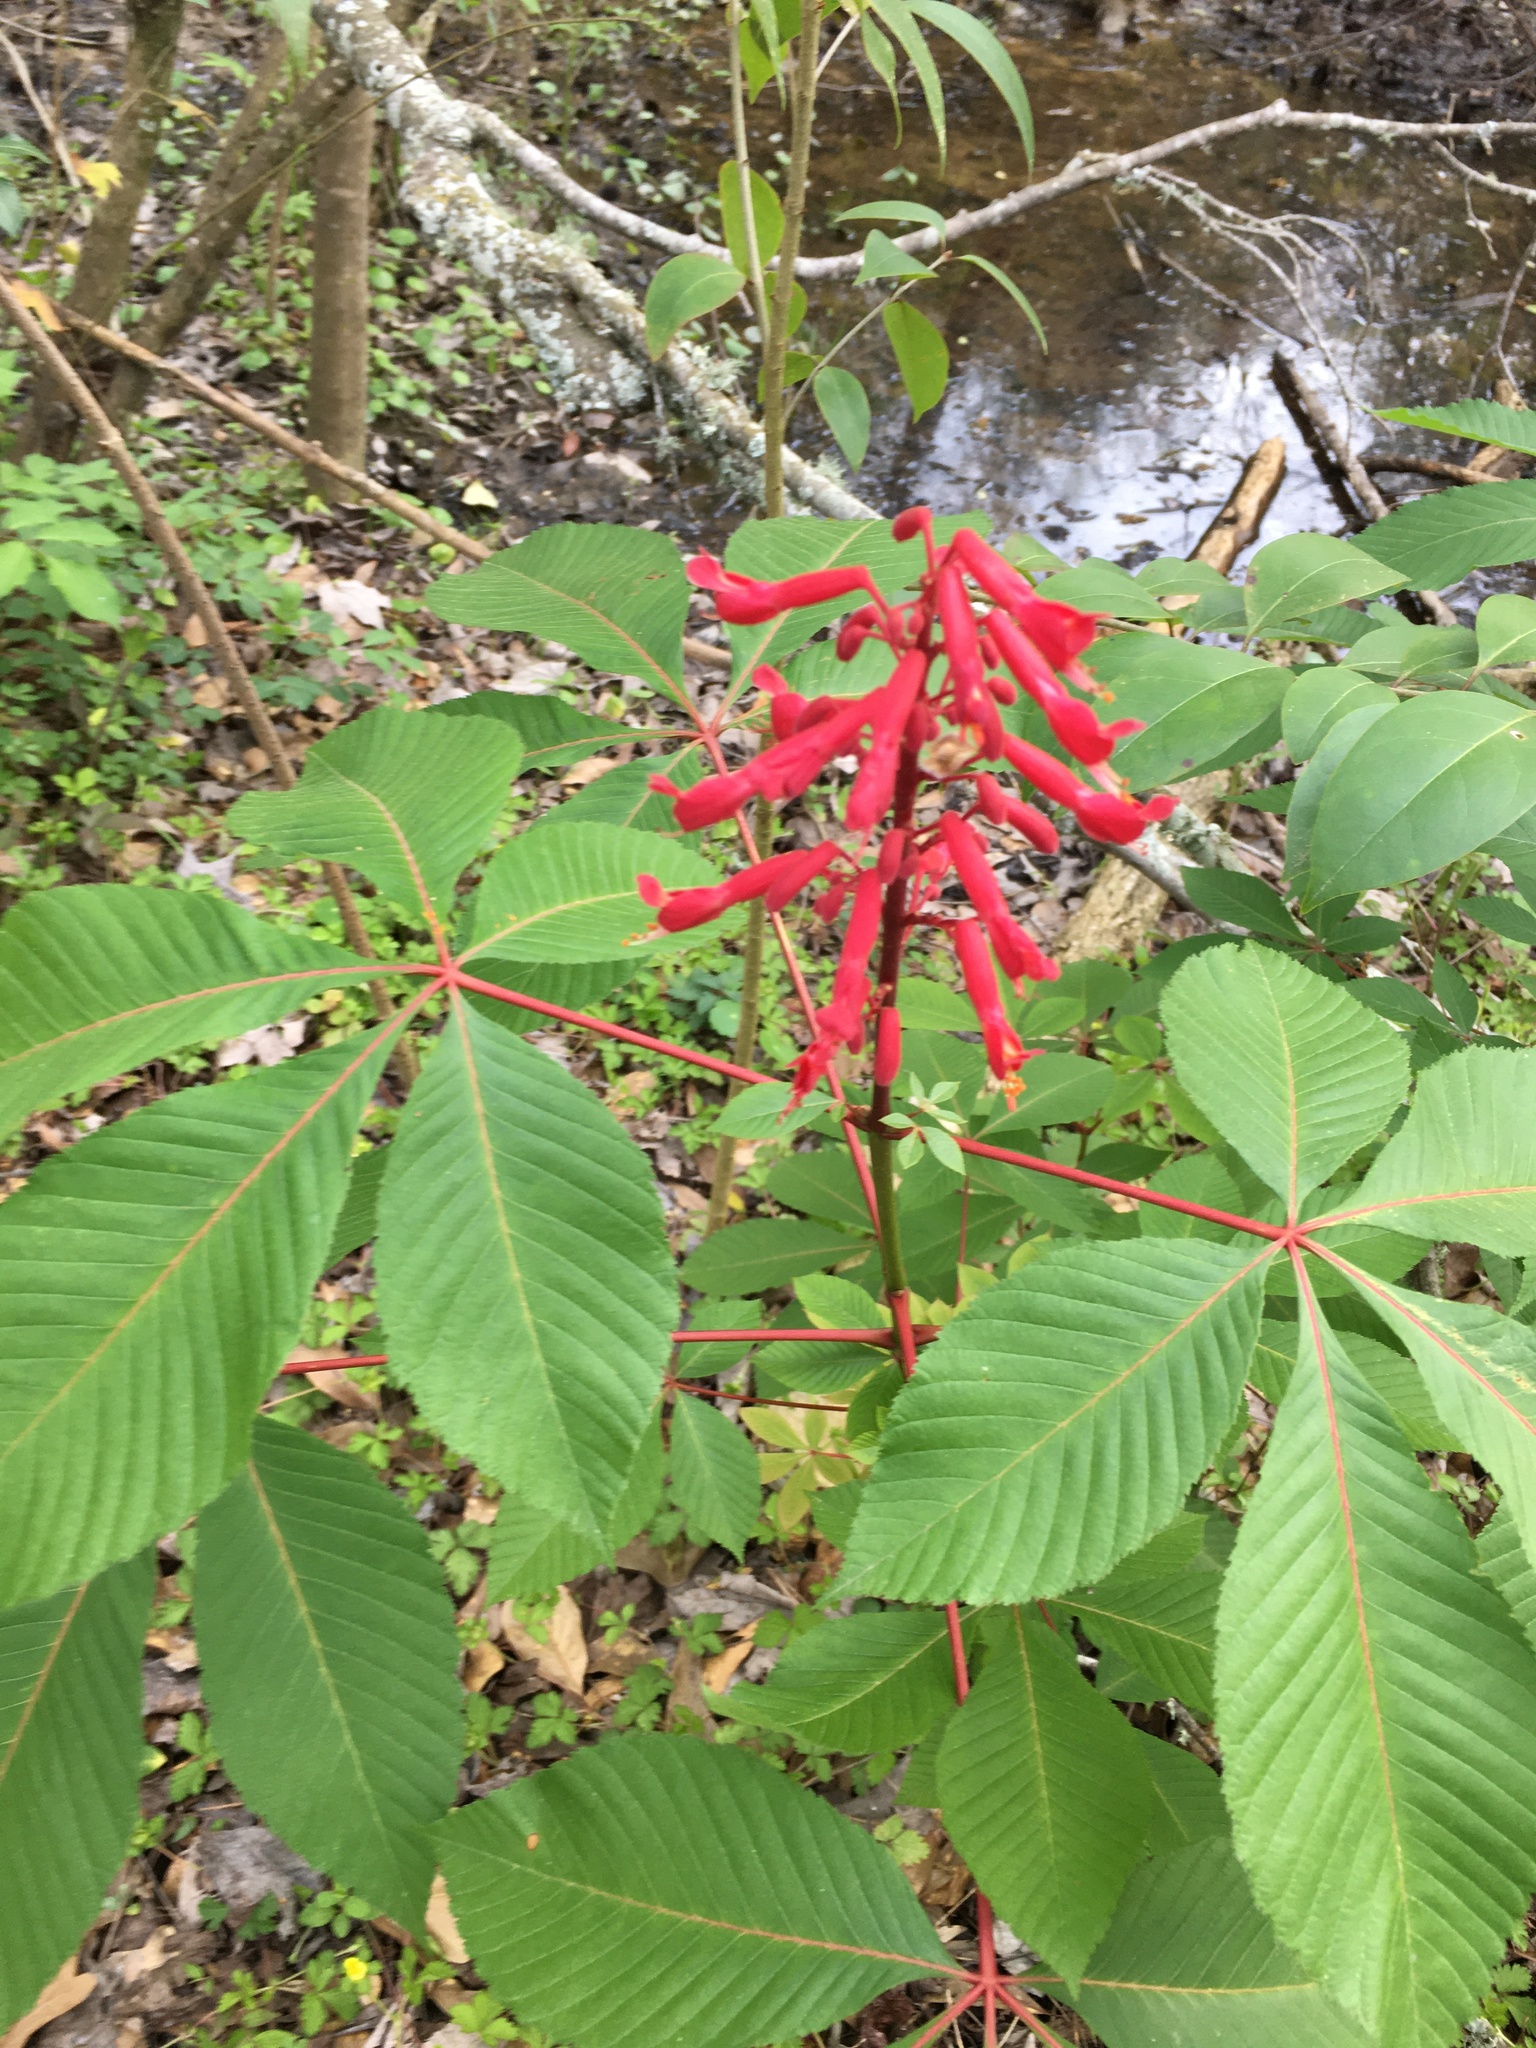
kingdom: Plantae
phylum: Tracheophyta
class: Magnoliopsida
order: Sapindales
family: Sapindaceae
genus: Aesculus
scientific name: Aesculus pavia
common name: Red buckeye
